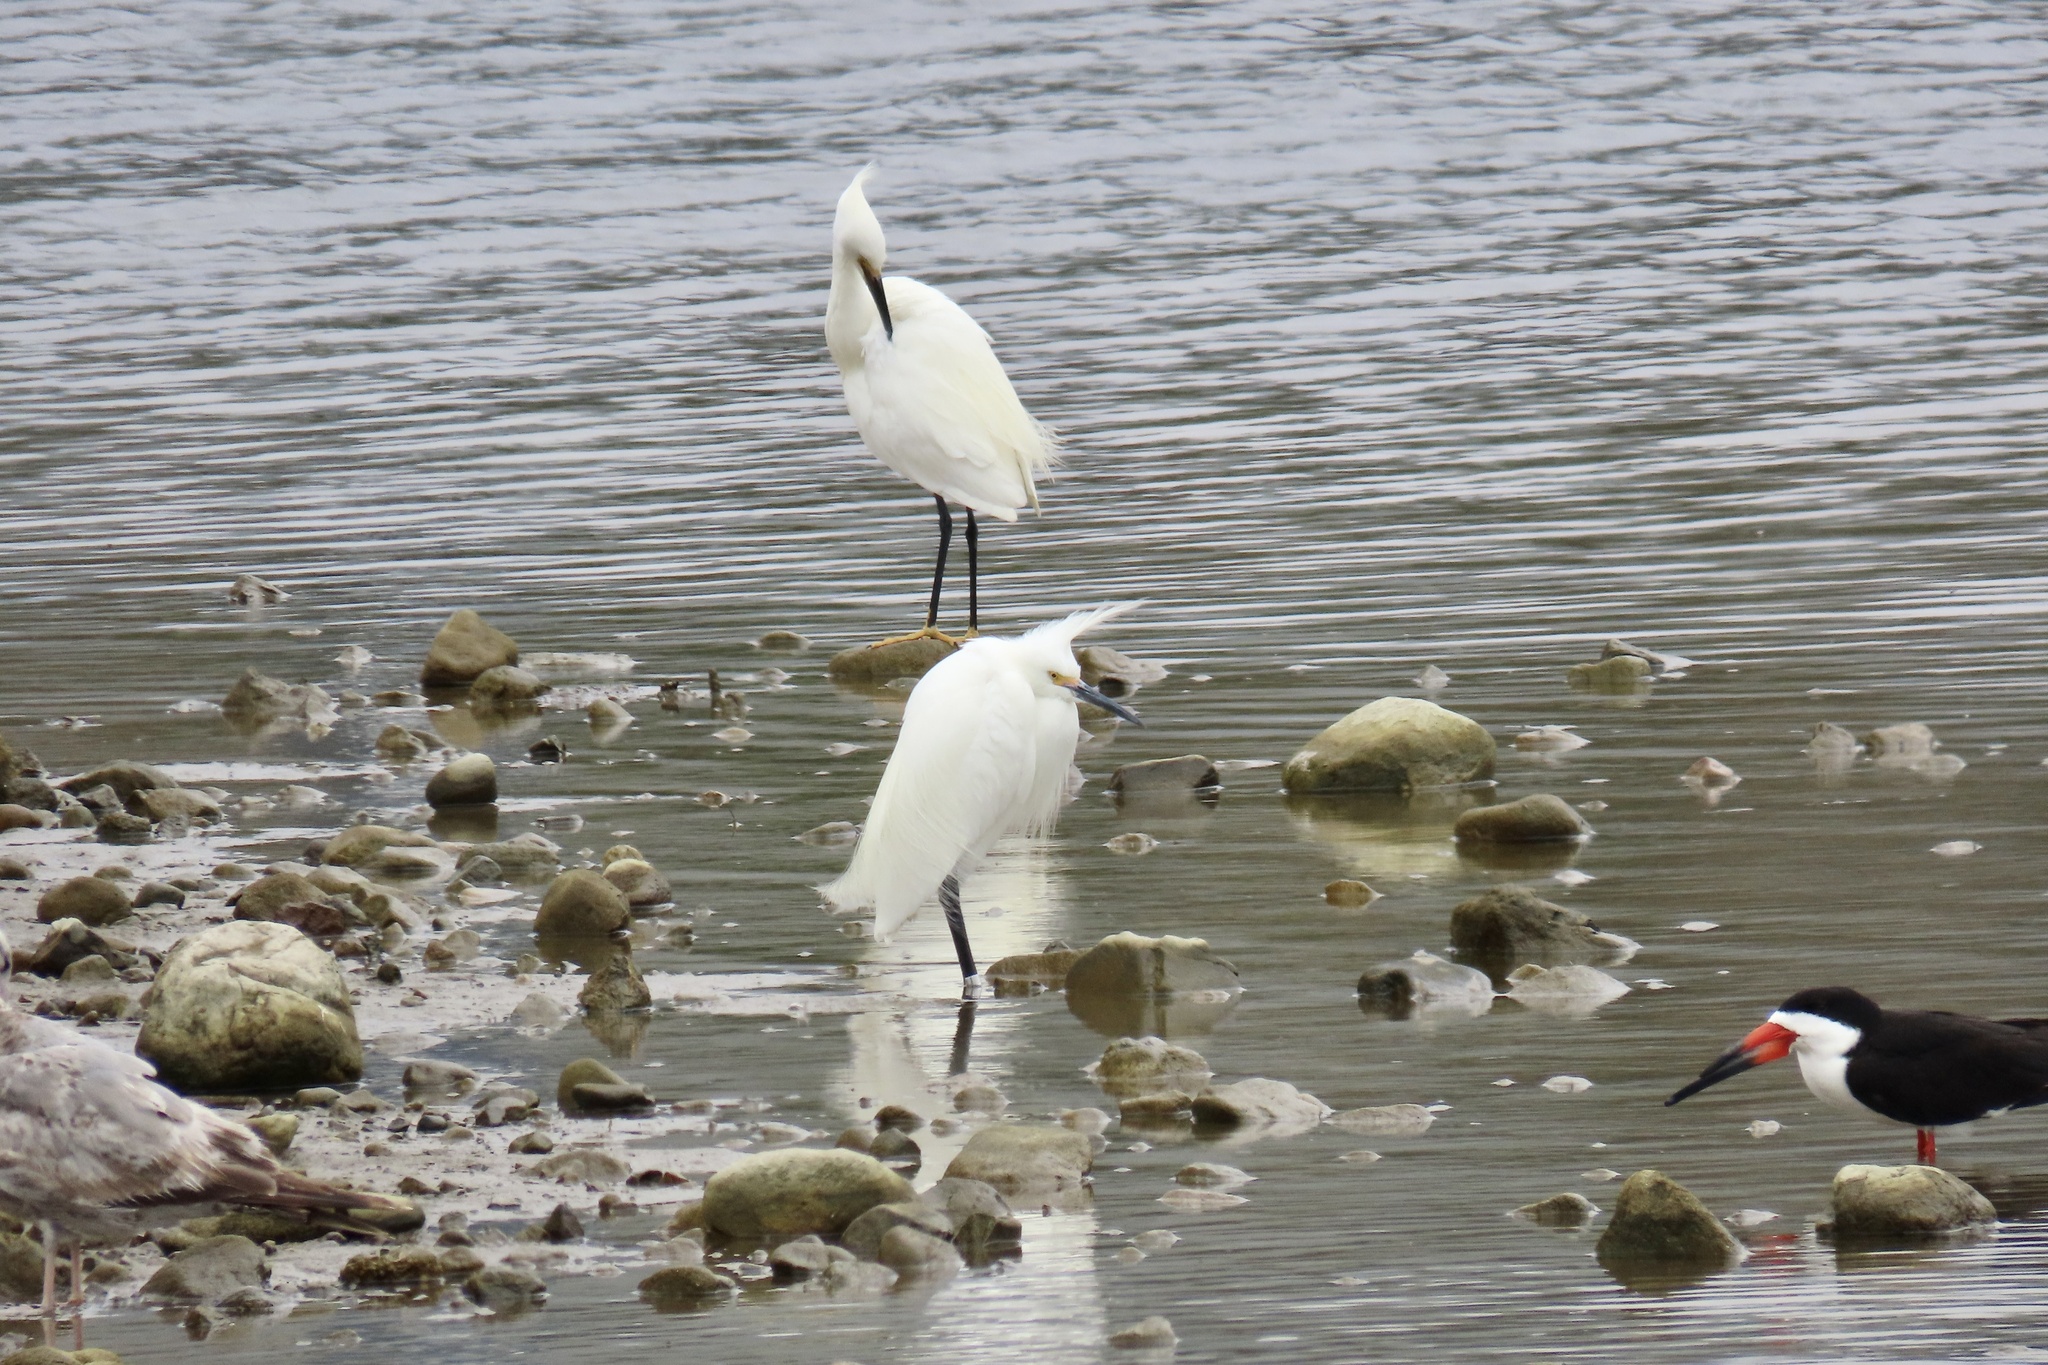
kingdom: Animalia
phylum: Chordata
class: Aves
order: Pelecaniformes
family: Ardeidae
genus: Egretta
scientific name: Egretta thula
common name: Snowy egret
